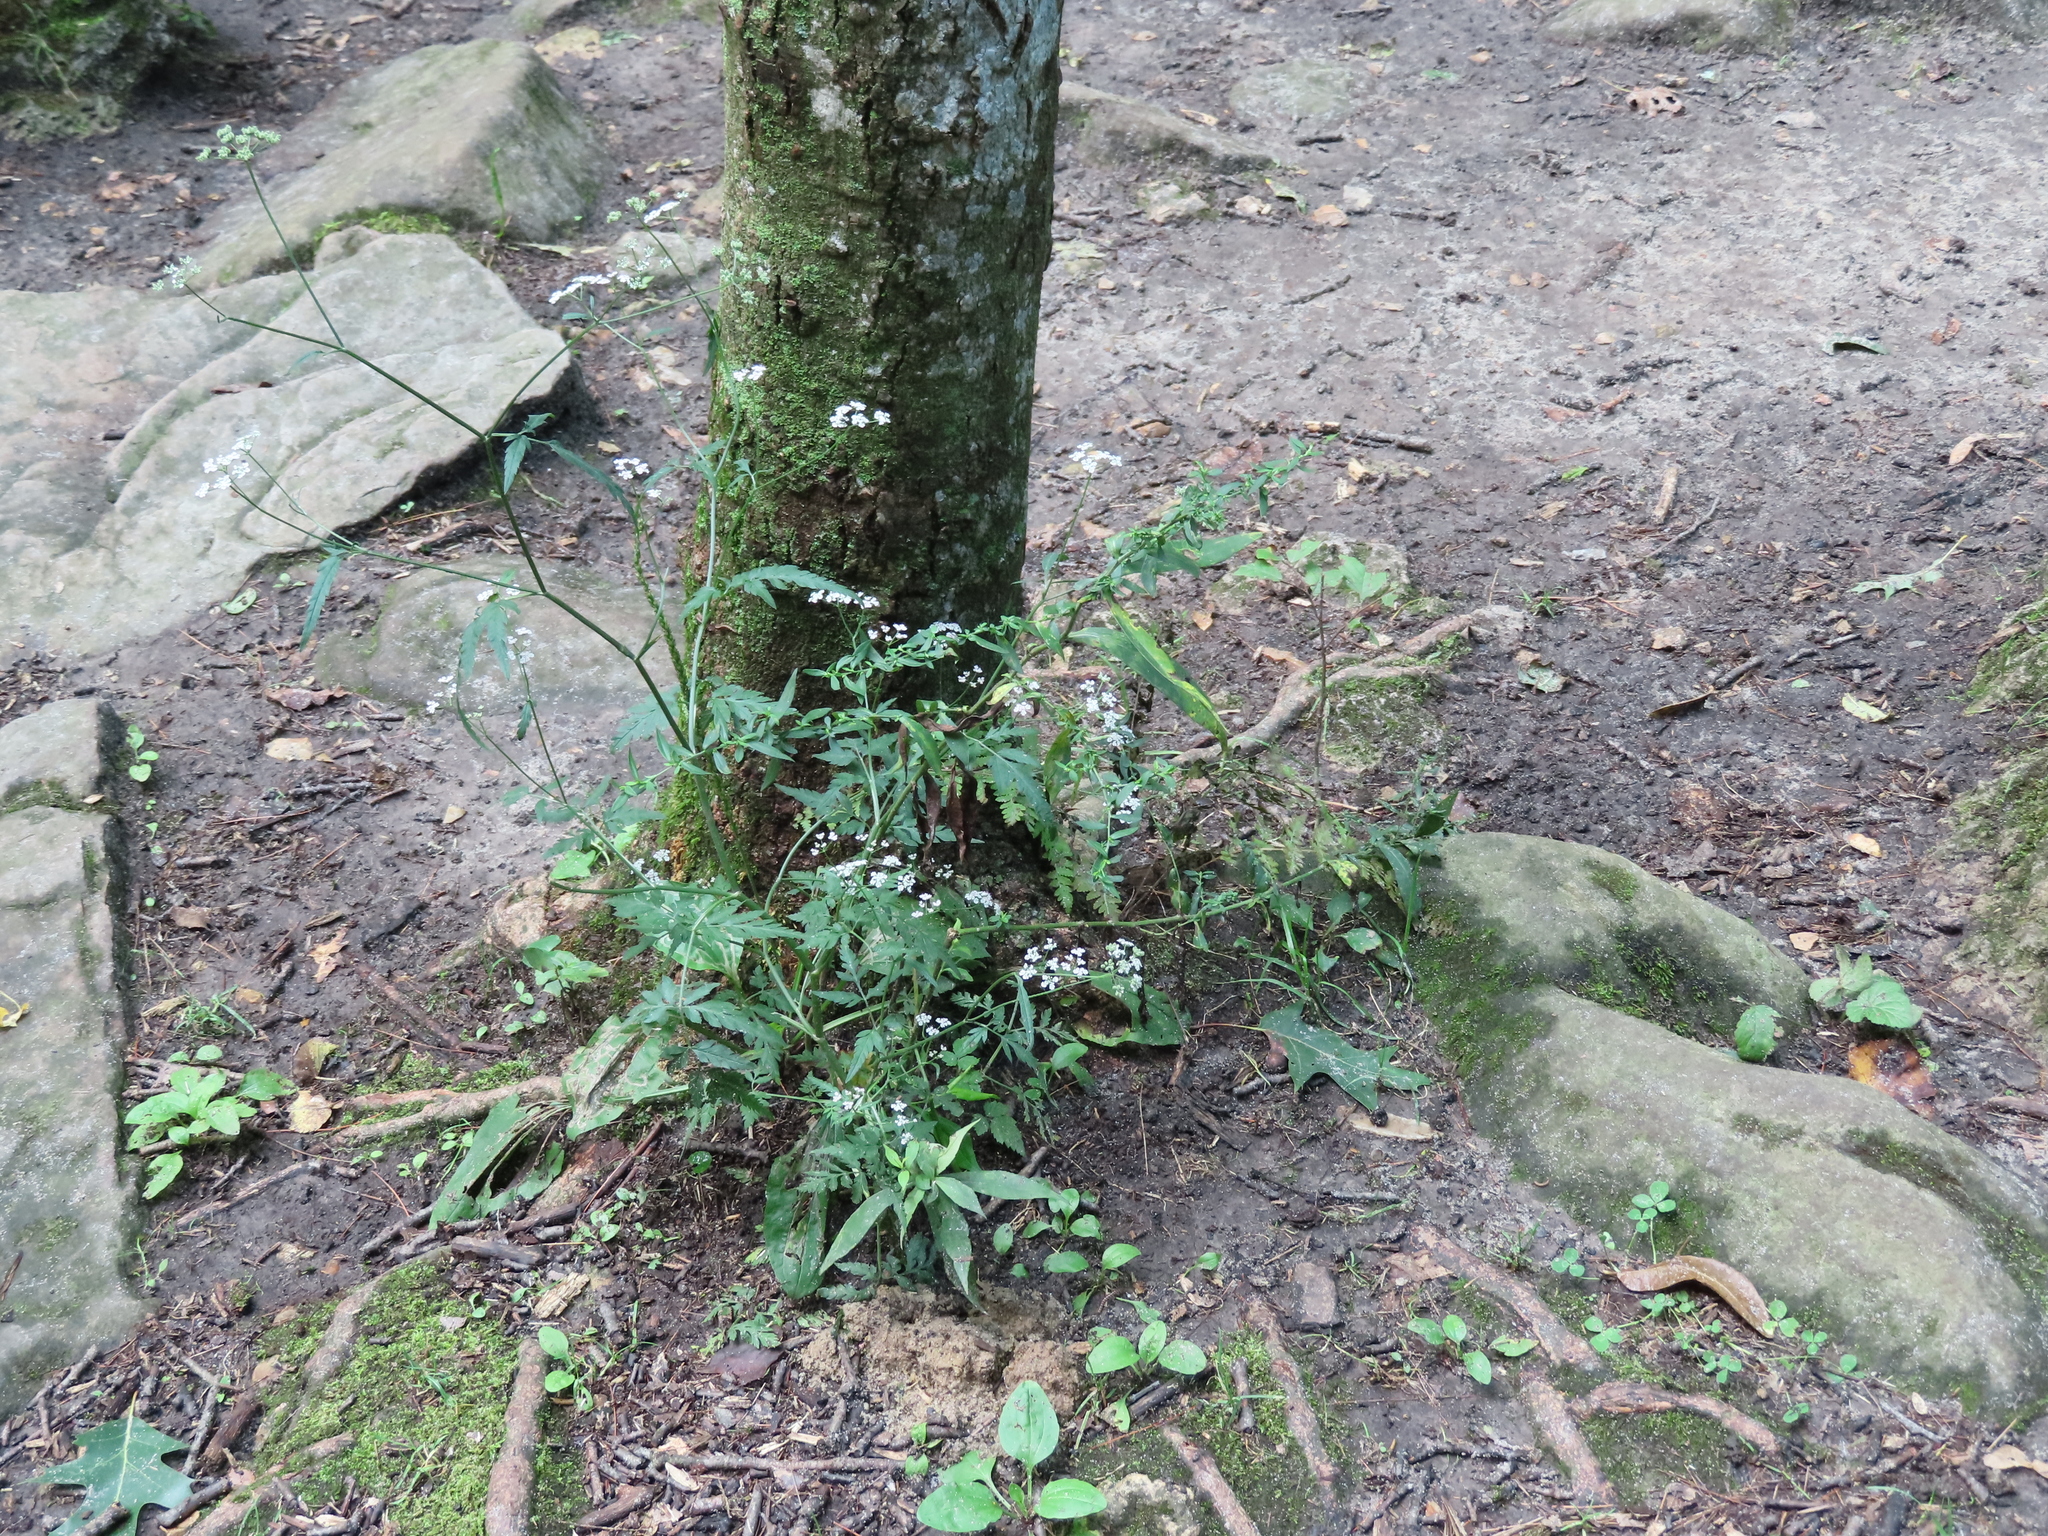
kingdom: Plantae
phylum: Tracheophyta
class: Magnoliopsida
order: Apiales
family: Apiaceae
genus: Torilis
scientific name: Torilis japonica
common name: Upright hedge-parsley
